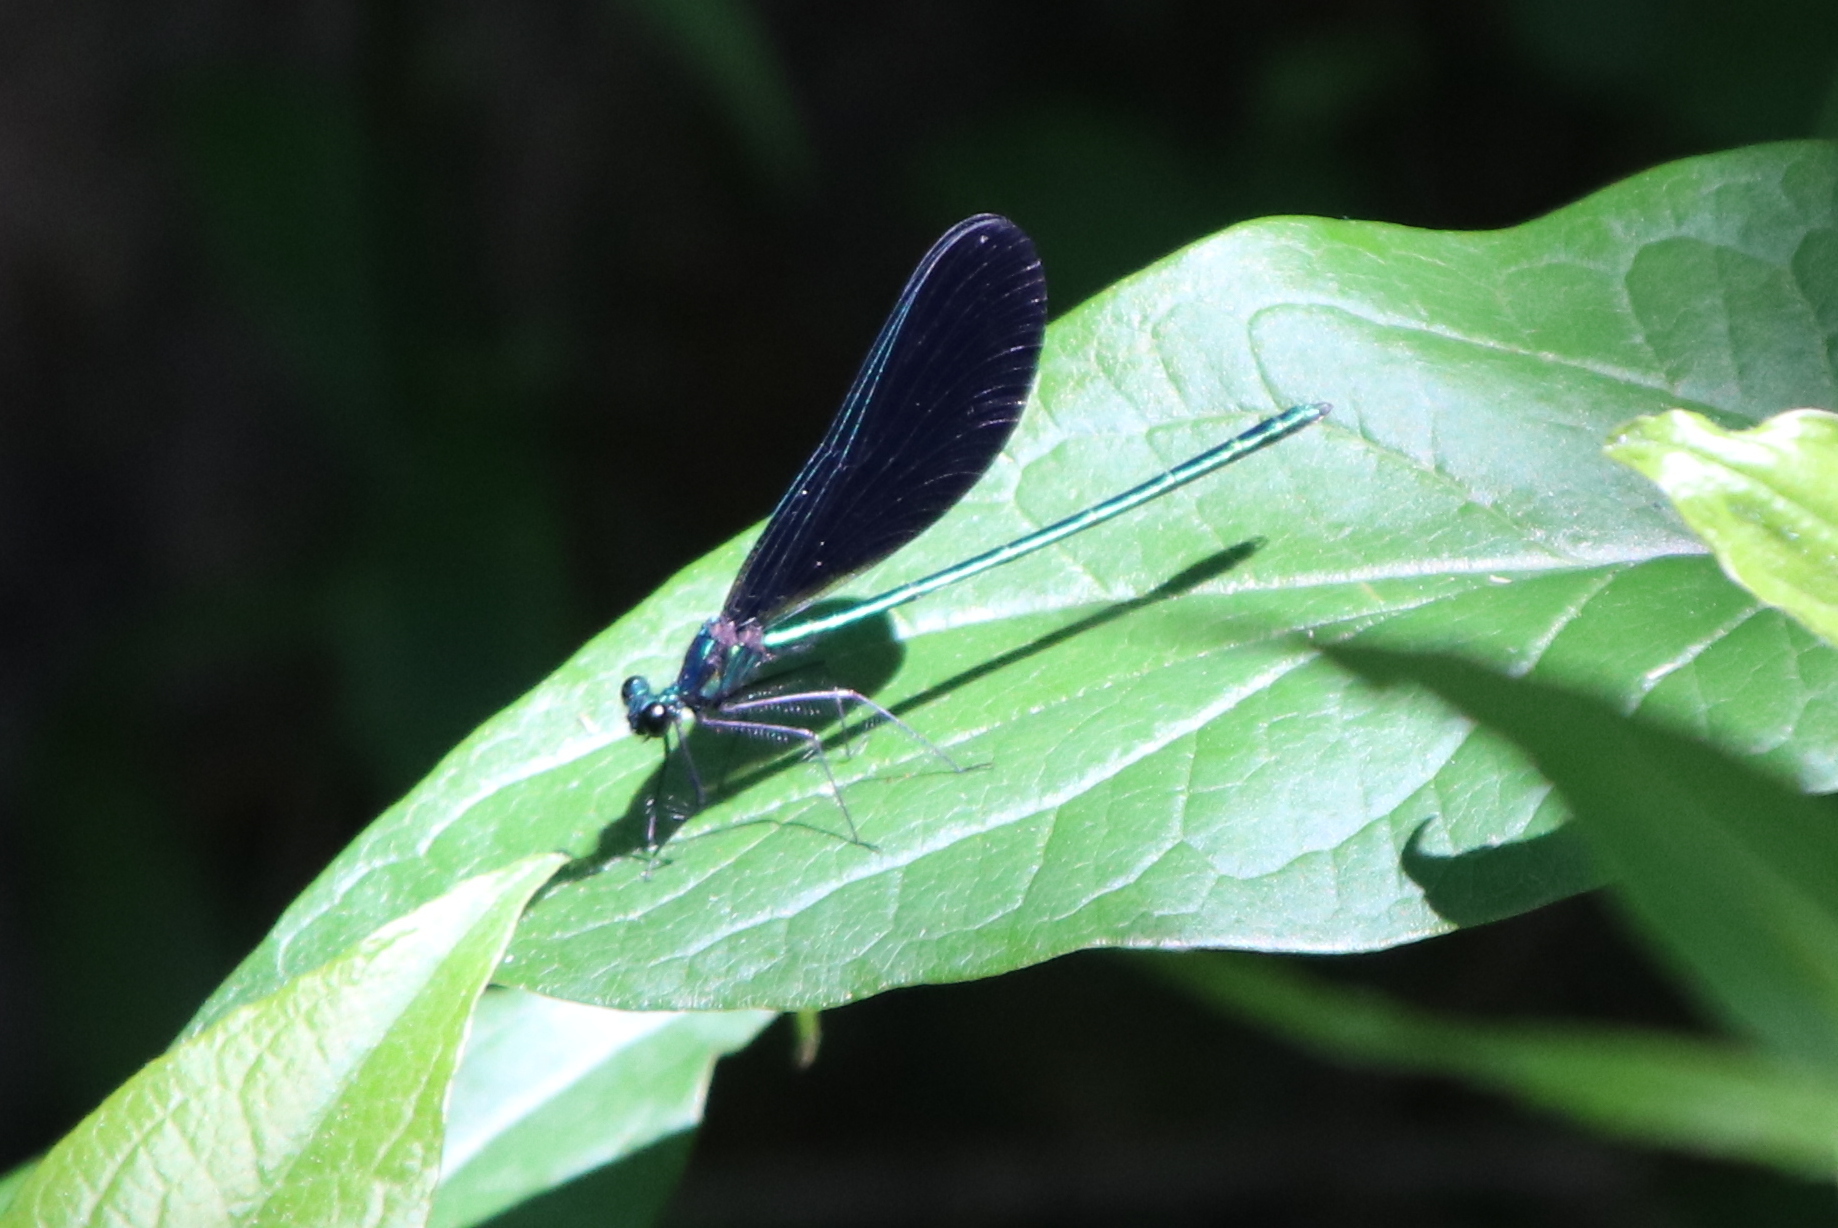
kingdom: Animalia
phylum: Arthropoda
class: Insecta
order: Odonata
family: Calopterygidae
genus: Calopteryx
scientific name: Calopteryx maculata
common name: Ebony jewelwing
